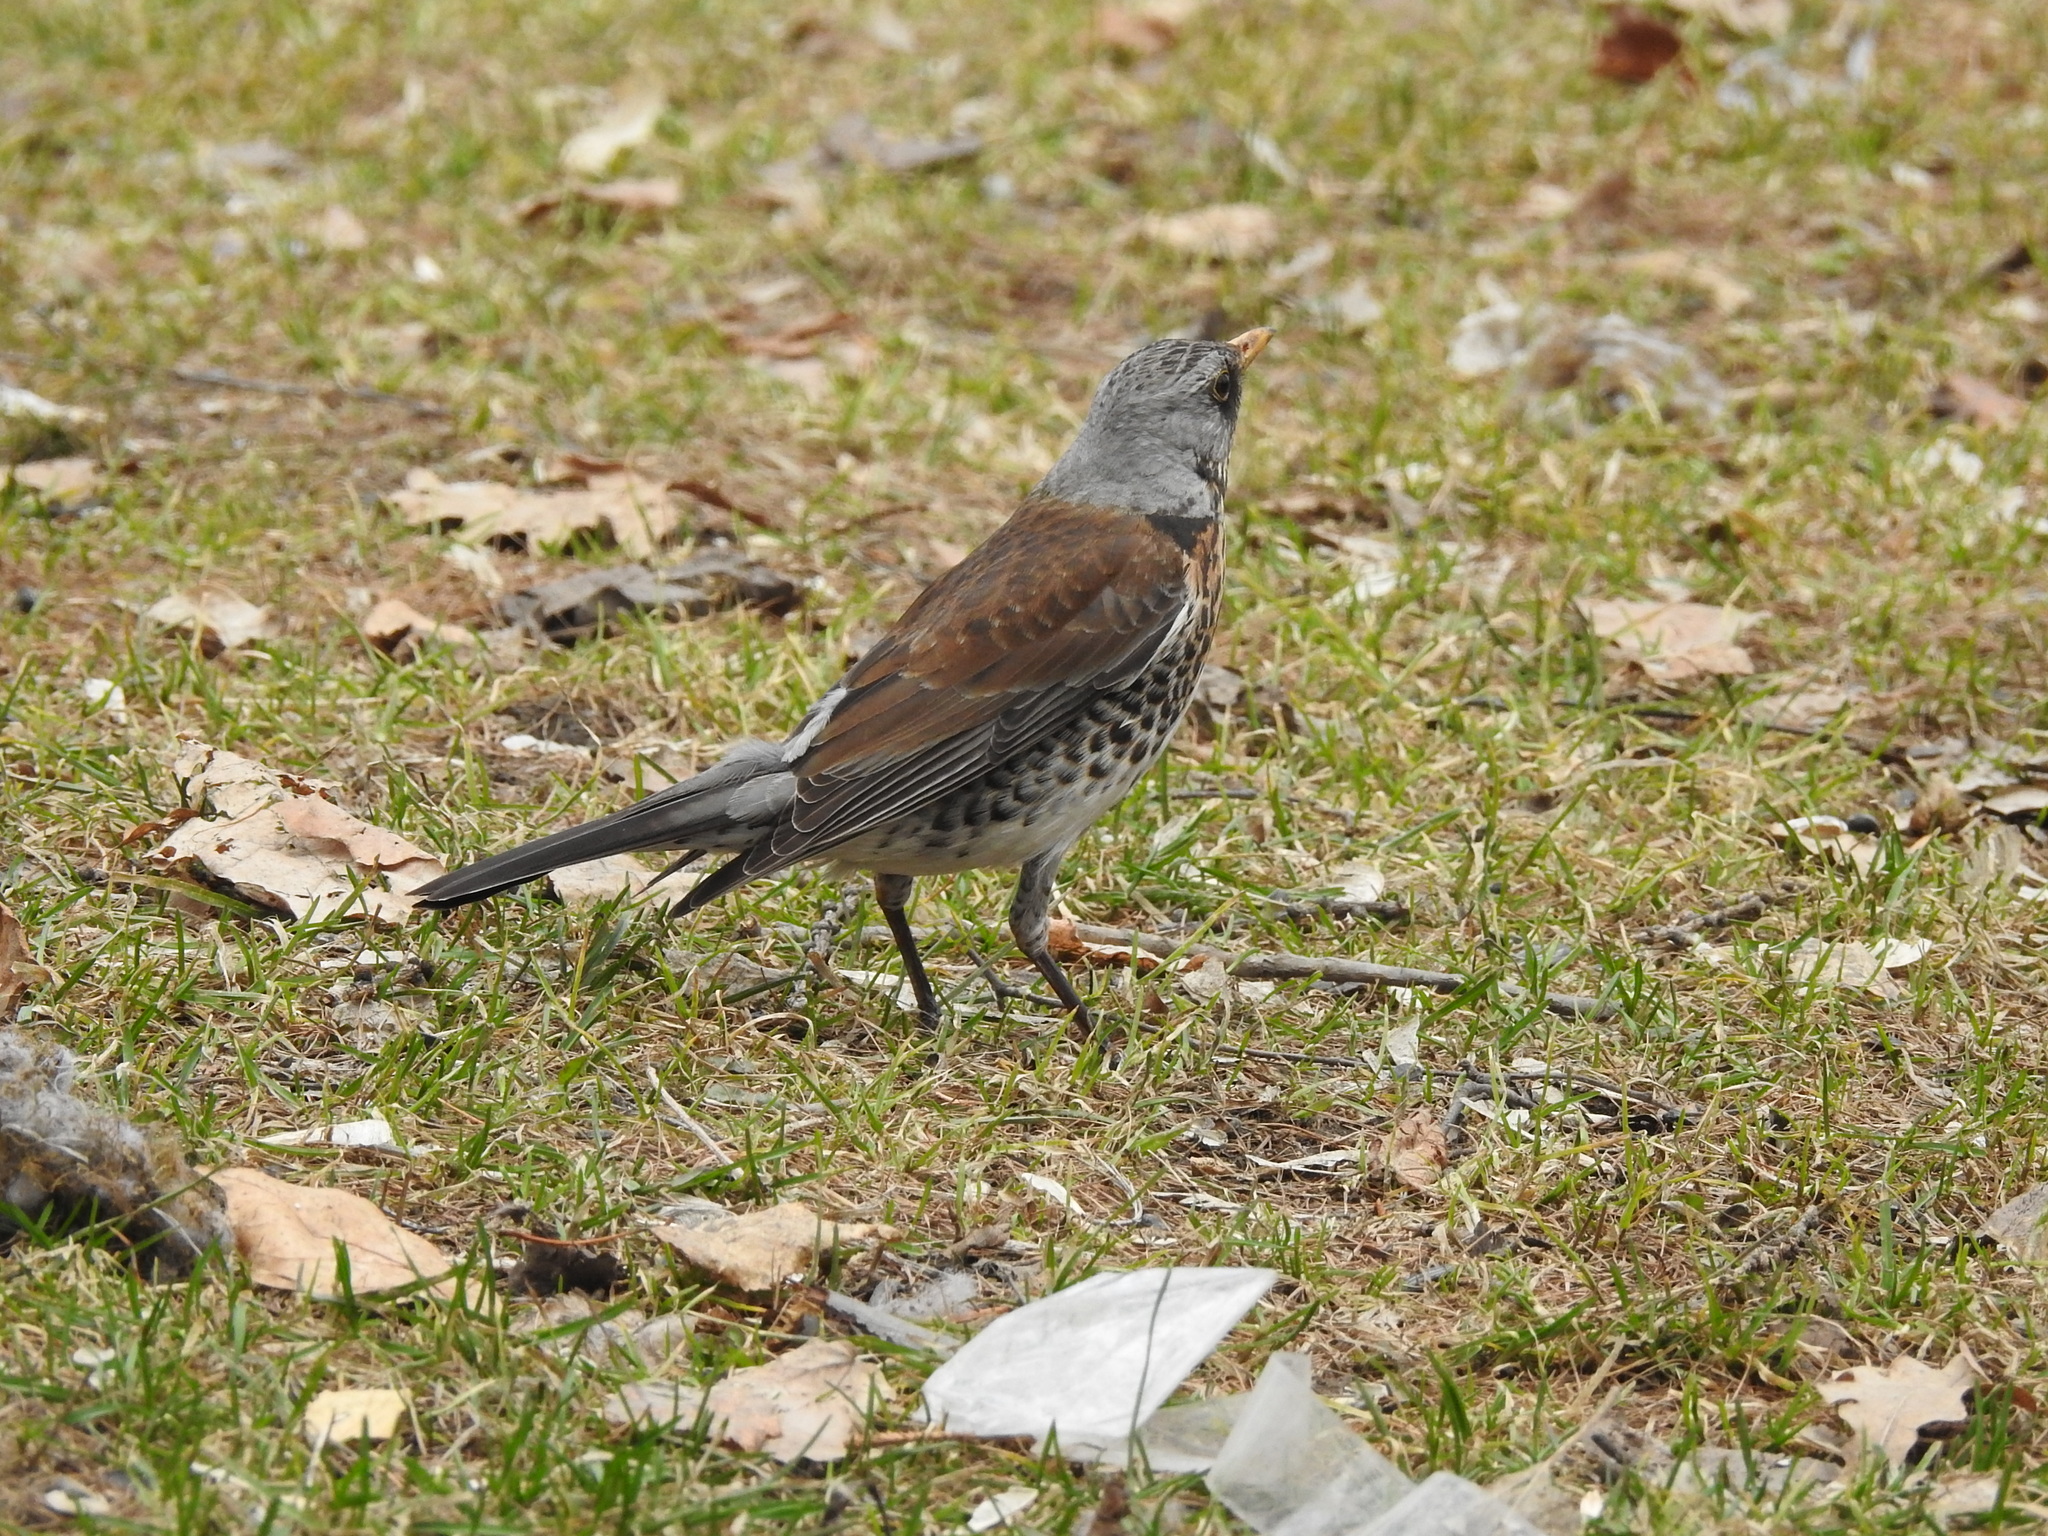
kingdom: Animalia
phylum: Chordata
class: Aves
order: Passeriformes
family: Turdidae
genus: Turdus
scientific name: Turdus pilaris
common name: Fieldfare
